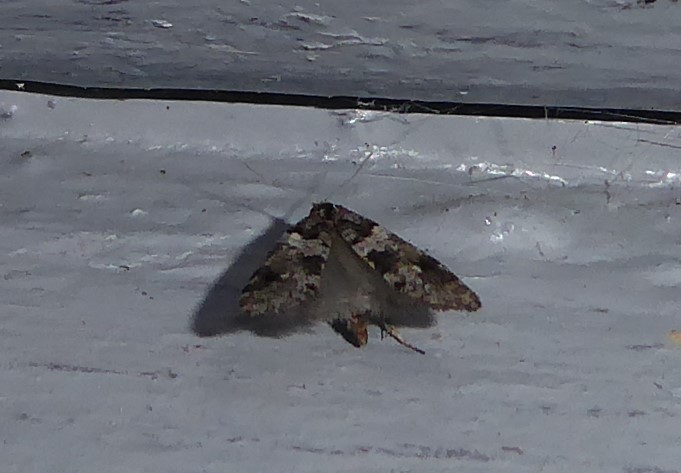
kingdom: Animalia
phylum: Arthropoda
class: Insecta
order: Lepidoptera
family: Psychidae
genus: Lepidoscia
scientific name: Lepidoscia heliochares
